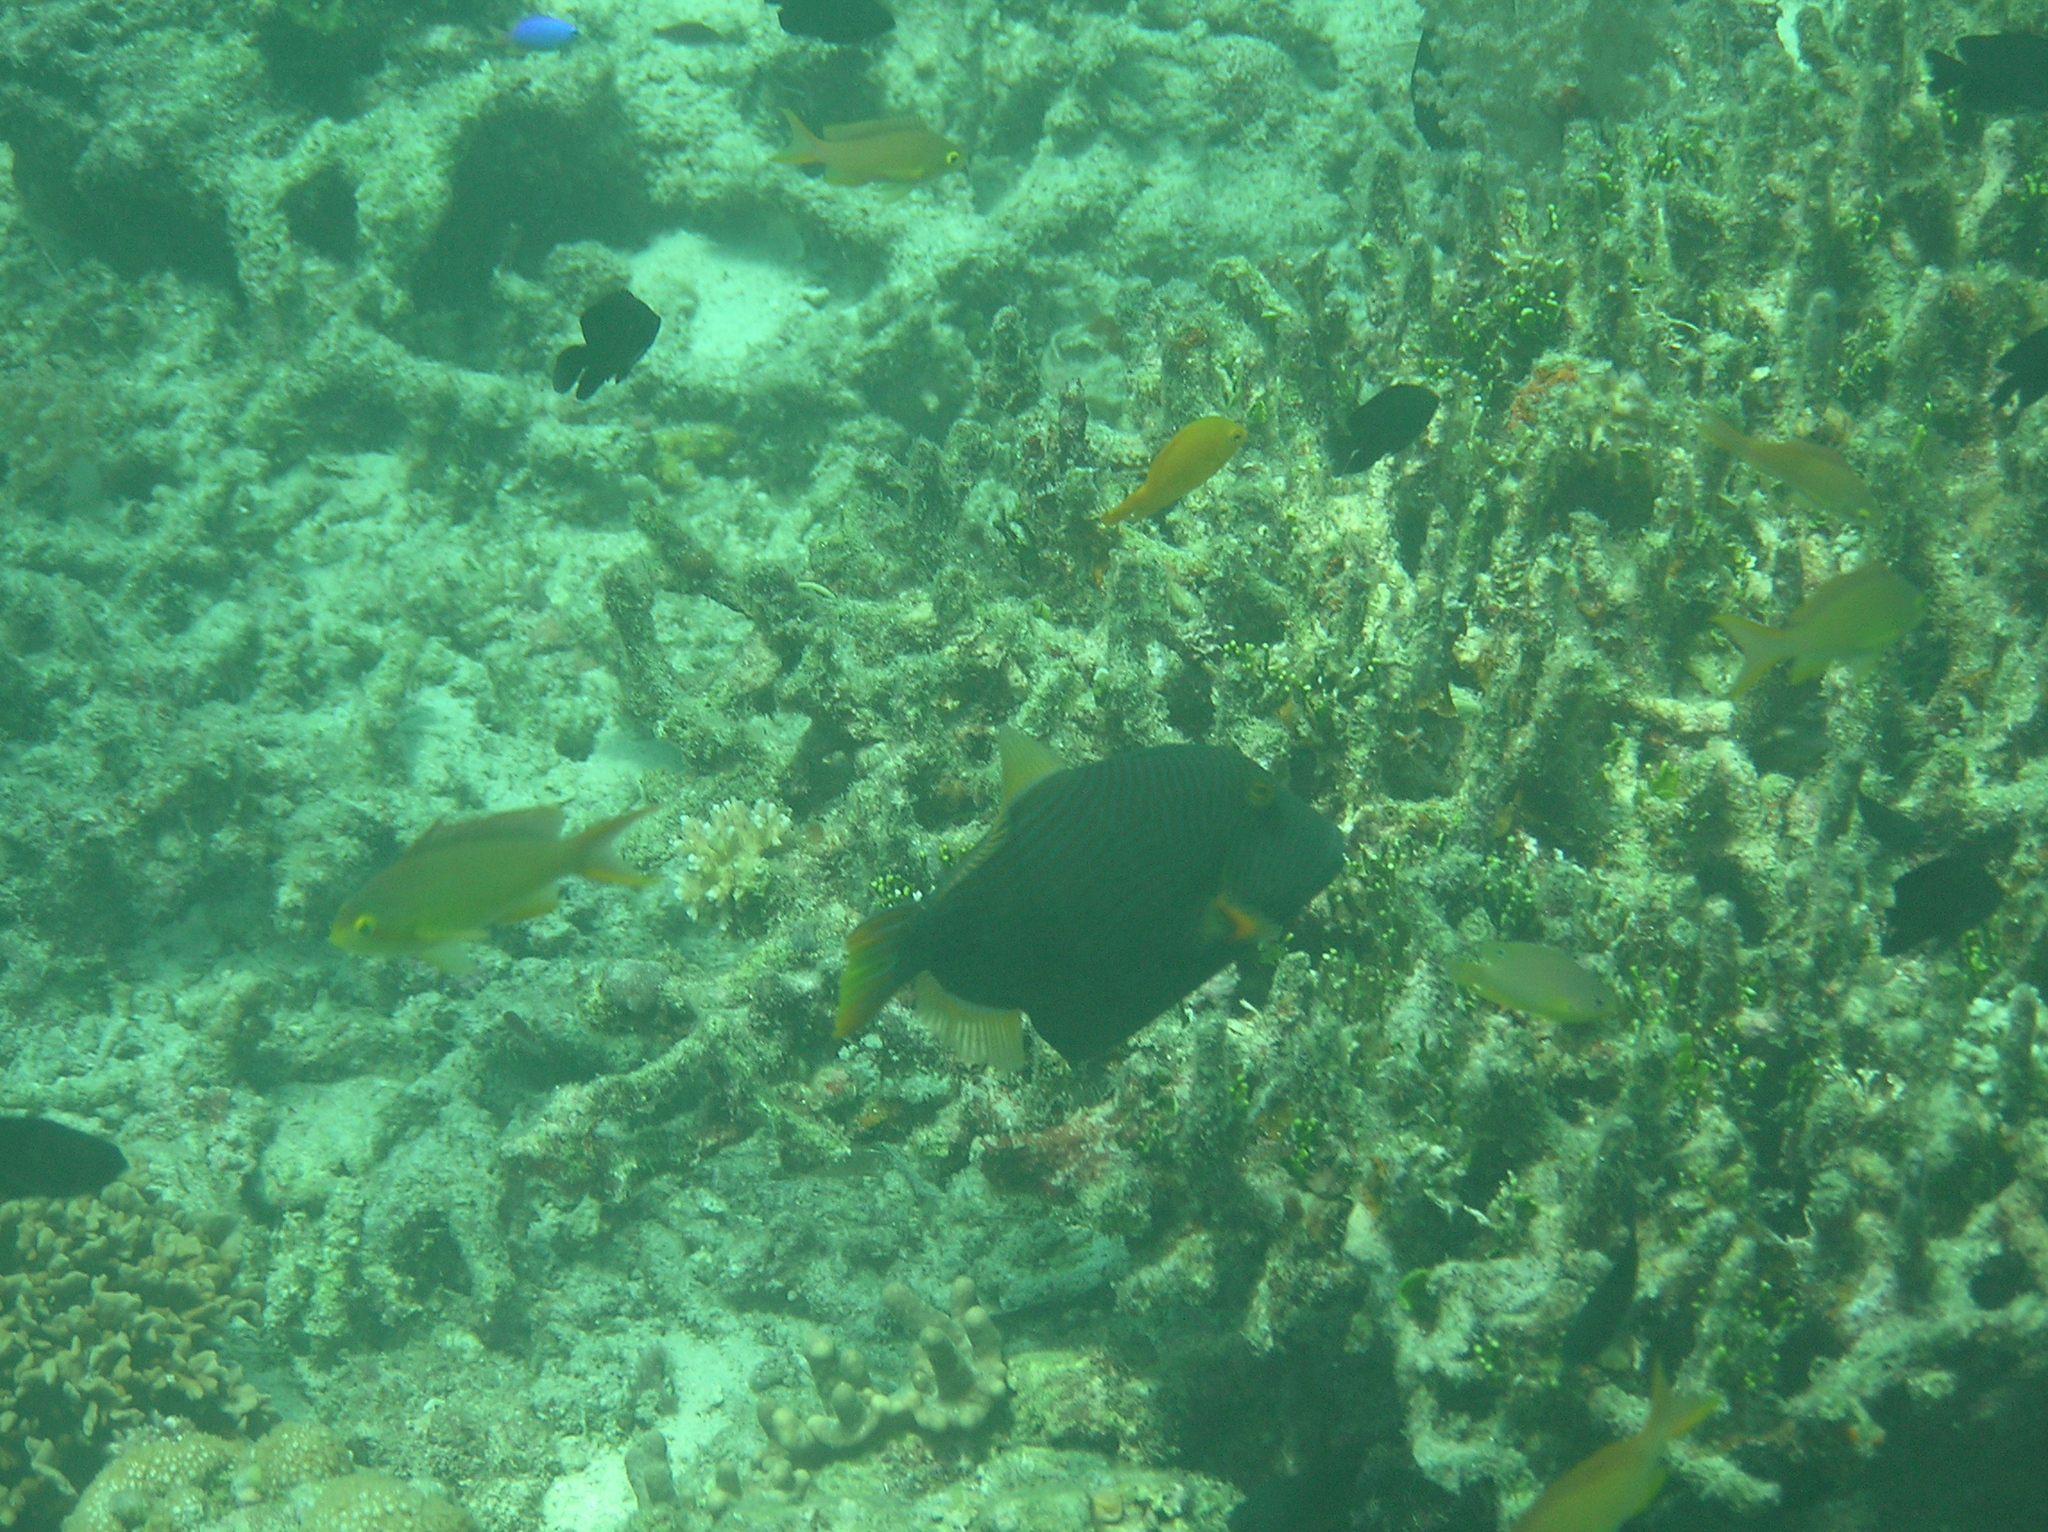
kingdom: Animalia
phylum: Chordata
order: Tetraodontiformes
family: Balistidae
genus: Balistapus
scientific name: Balistapus undulatus
